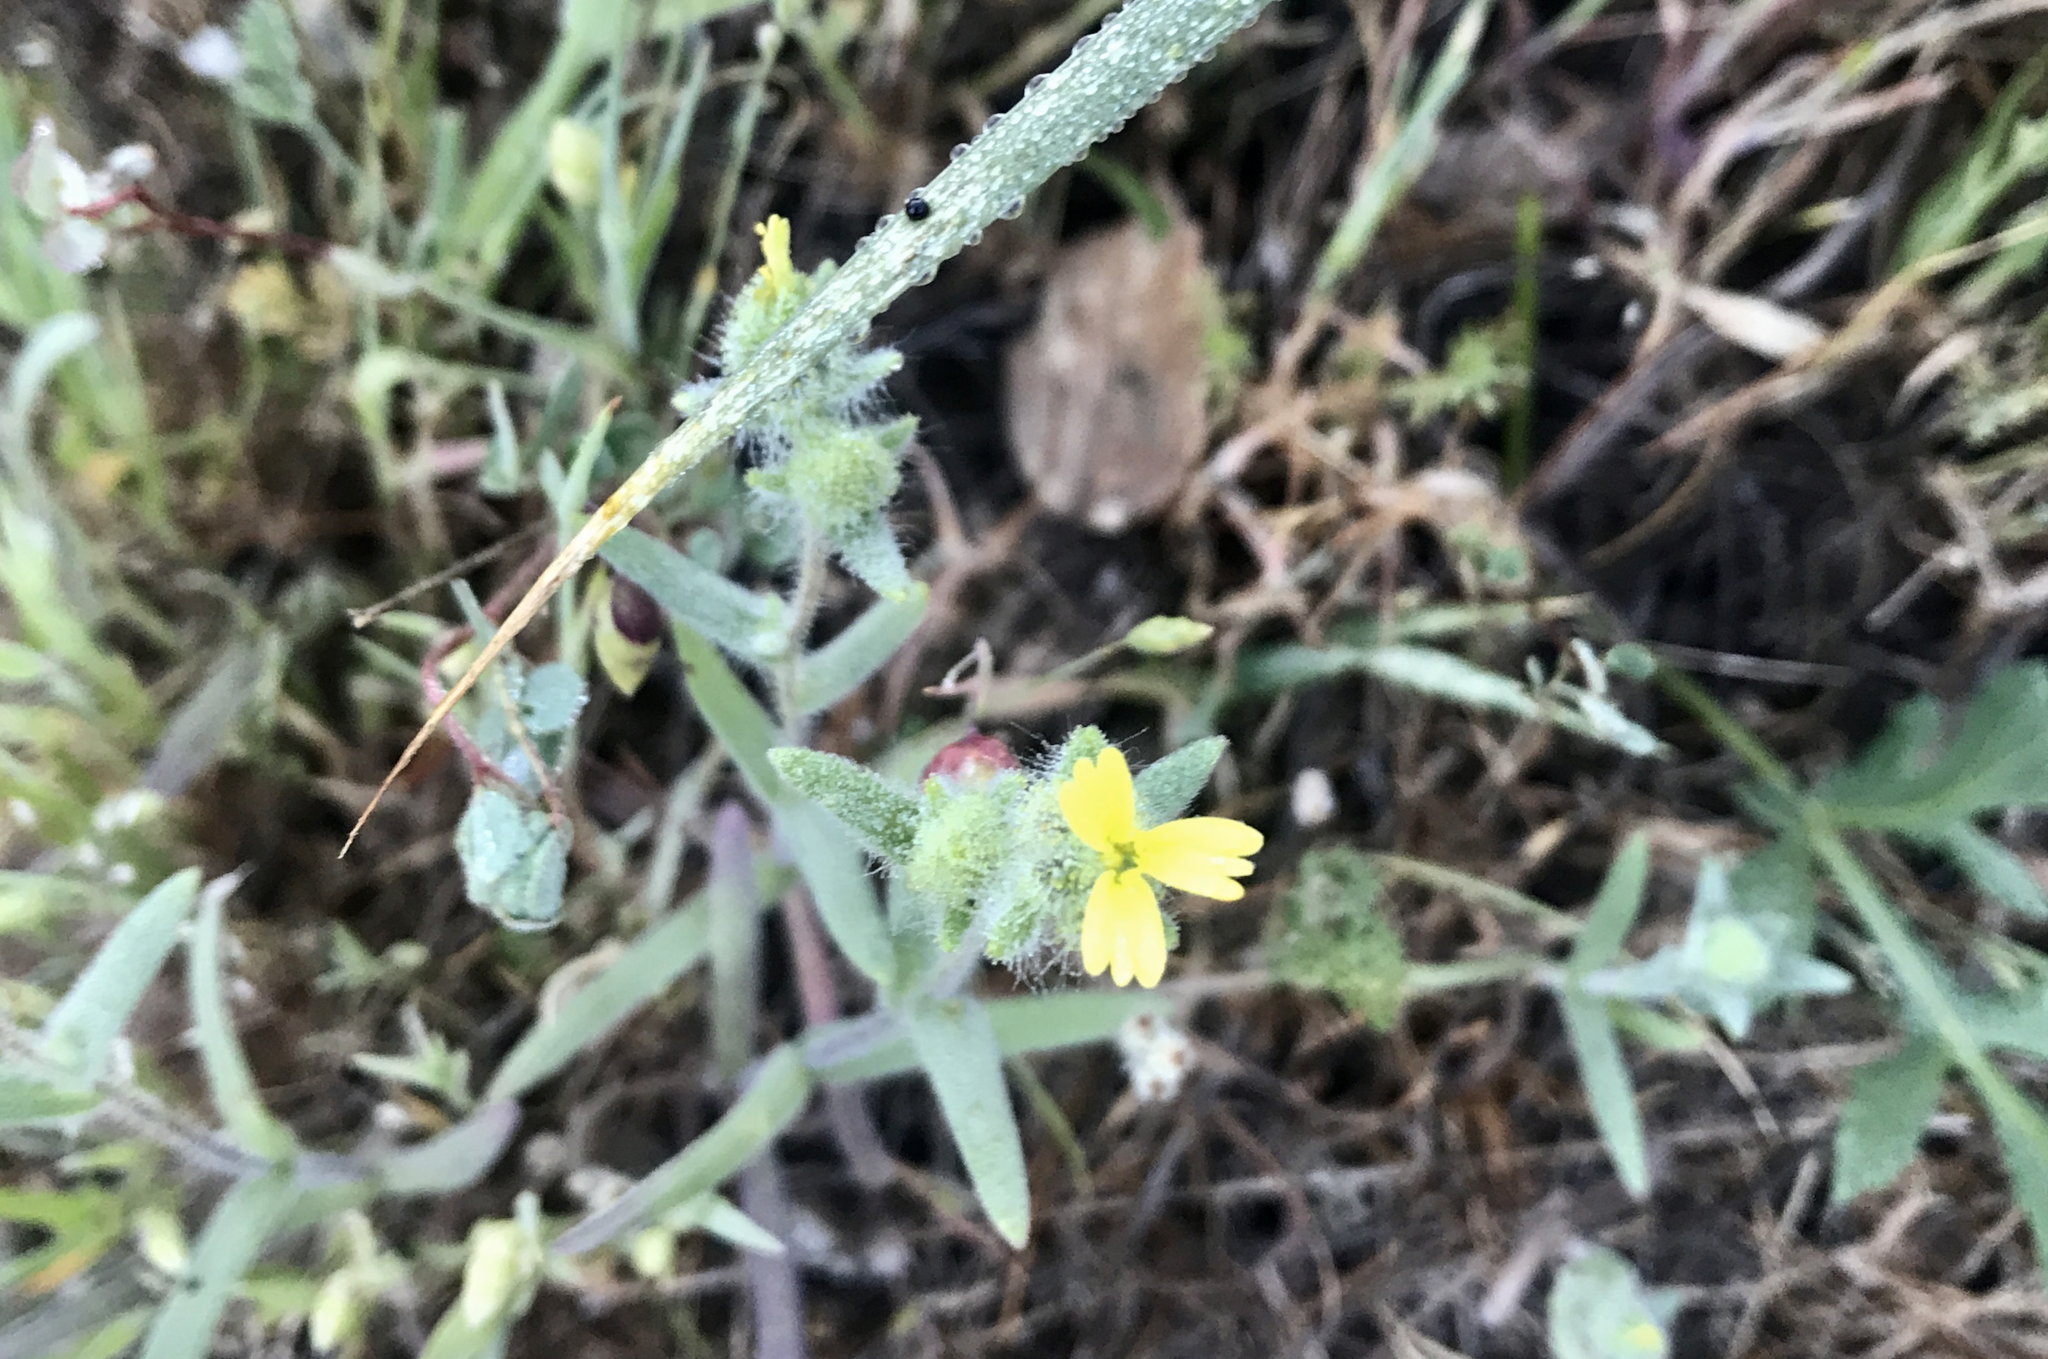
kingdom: Plantae
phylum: Tracheophyta
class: Magnoliopsida
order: Asterales
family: Asteraceae
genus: Madia
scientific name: Madia gracilis
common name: Grassy tarweed
